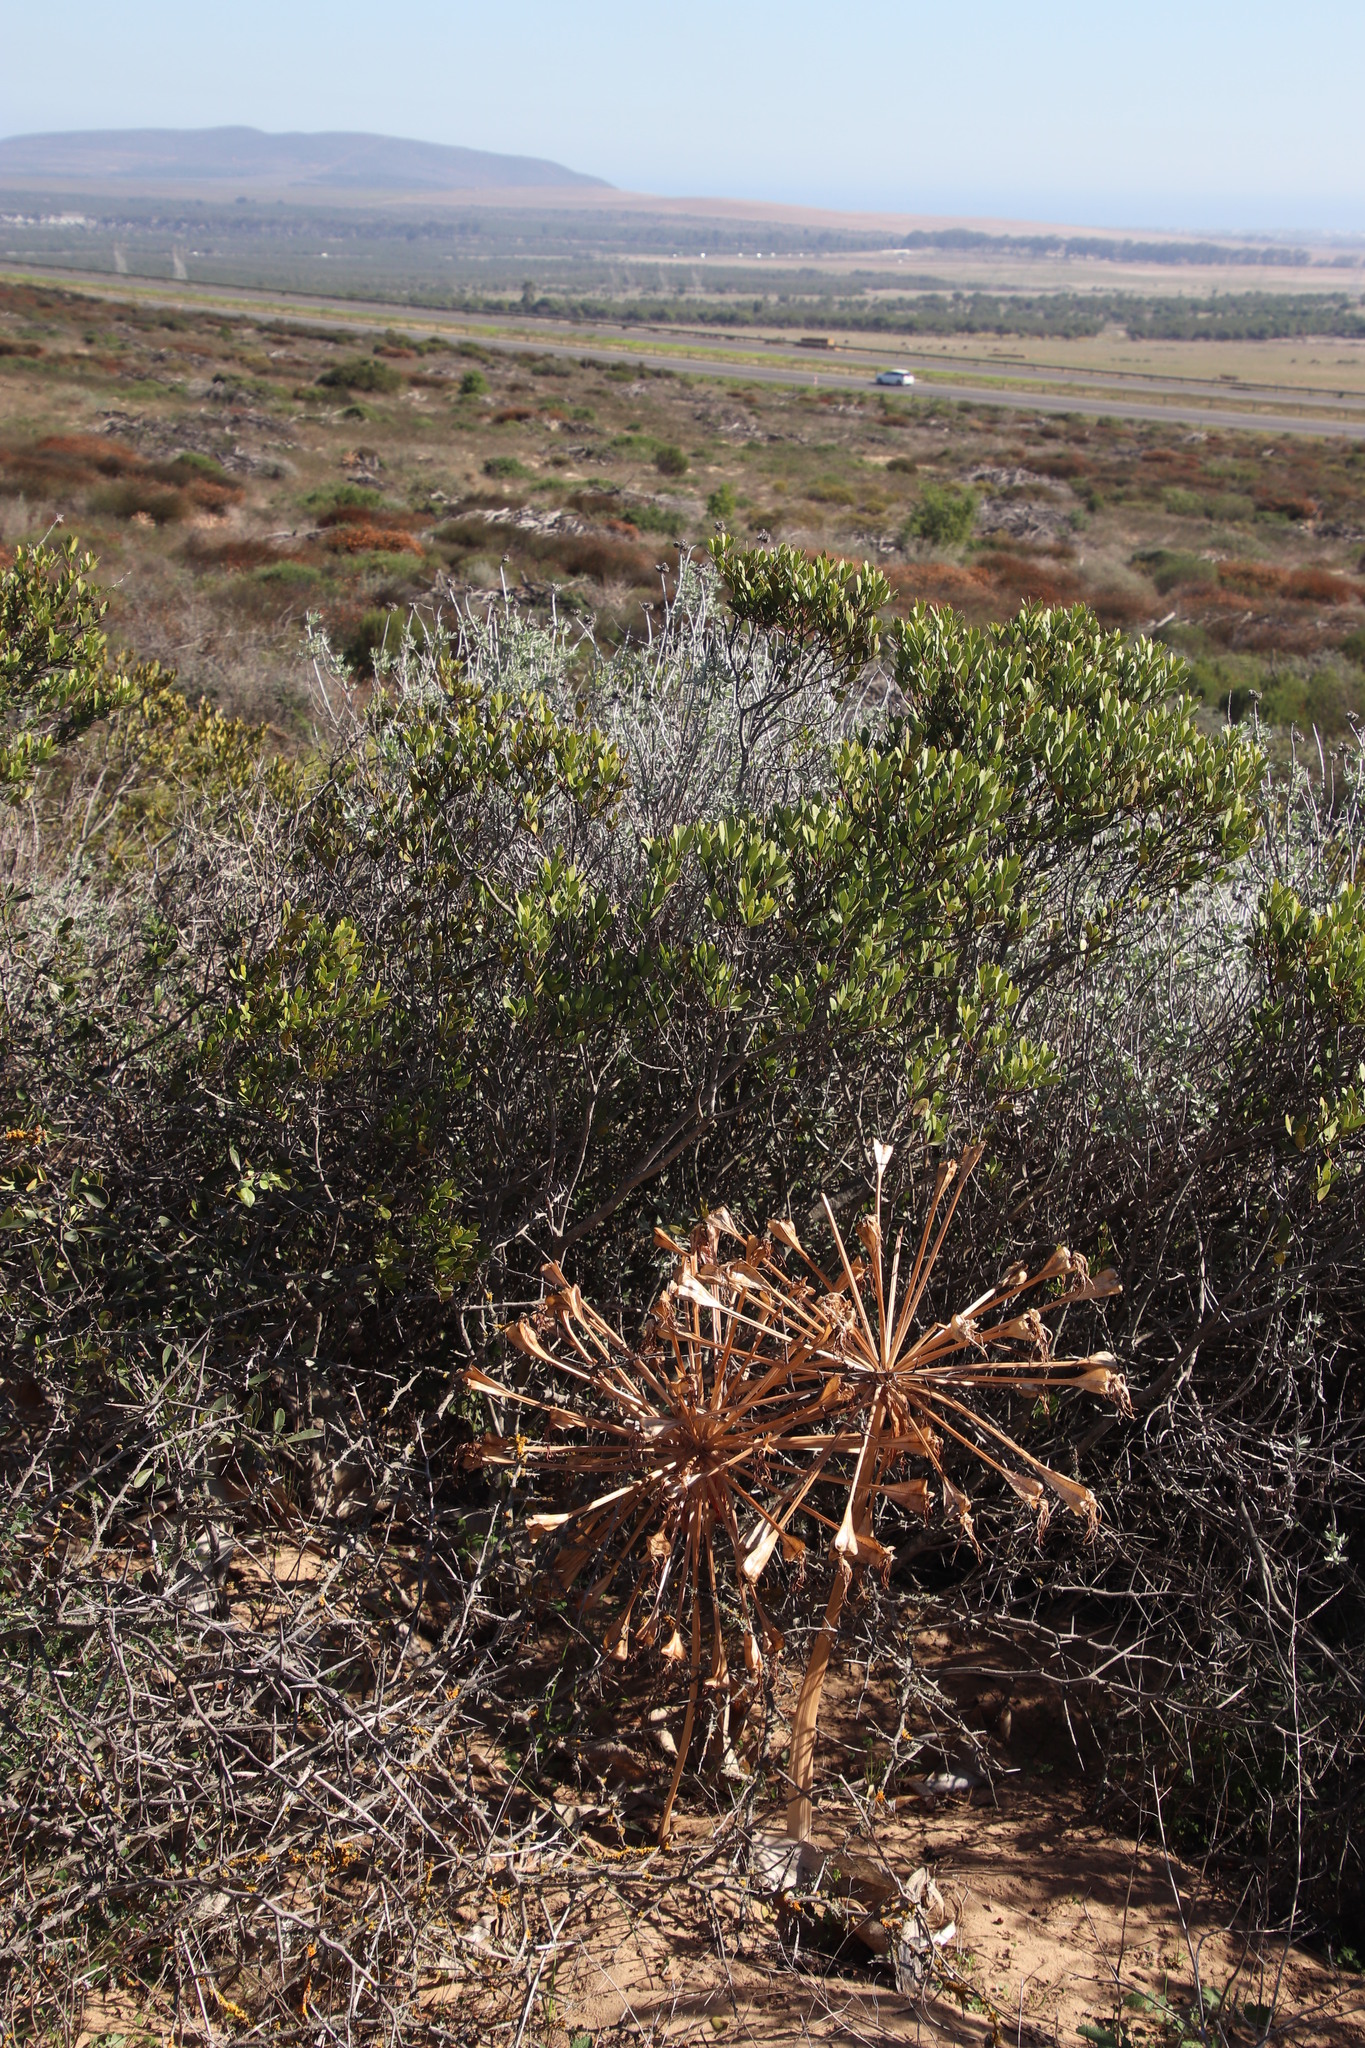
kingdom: Plantae
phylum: Tracheophyta
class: Liliopsida
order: Asparagales
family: Amaryllidaceae
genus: Brunsvigia
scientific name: Brunsvigia orientalis
